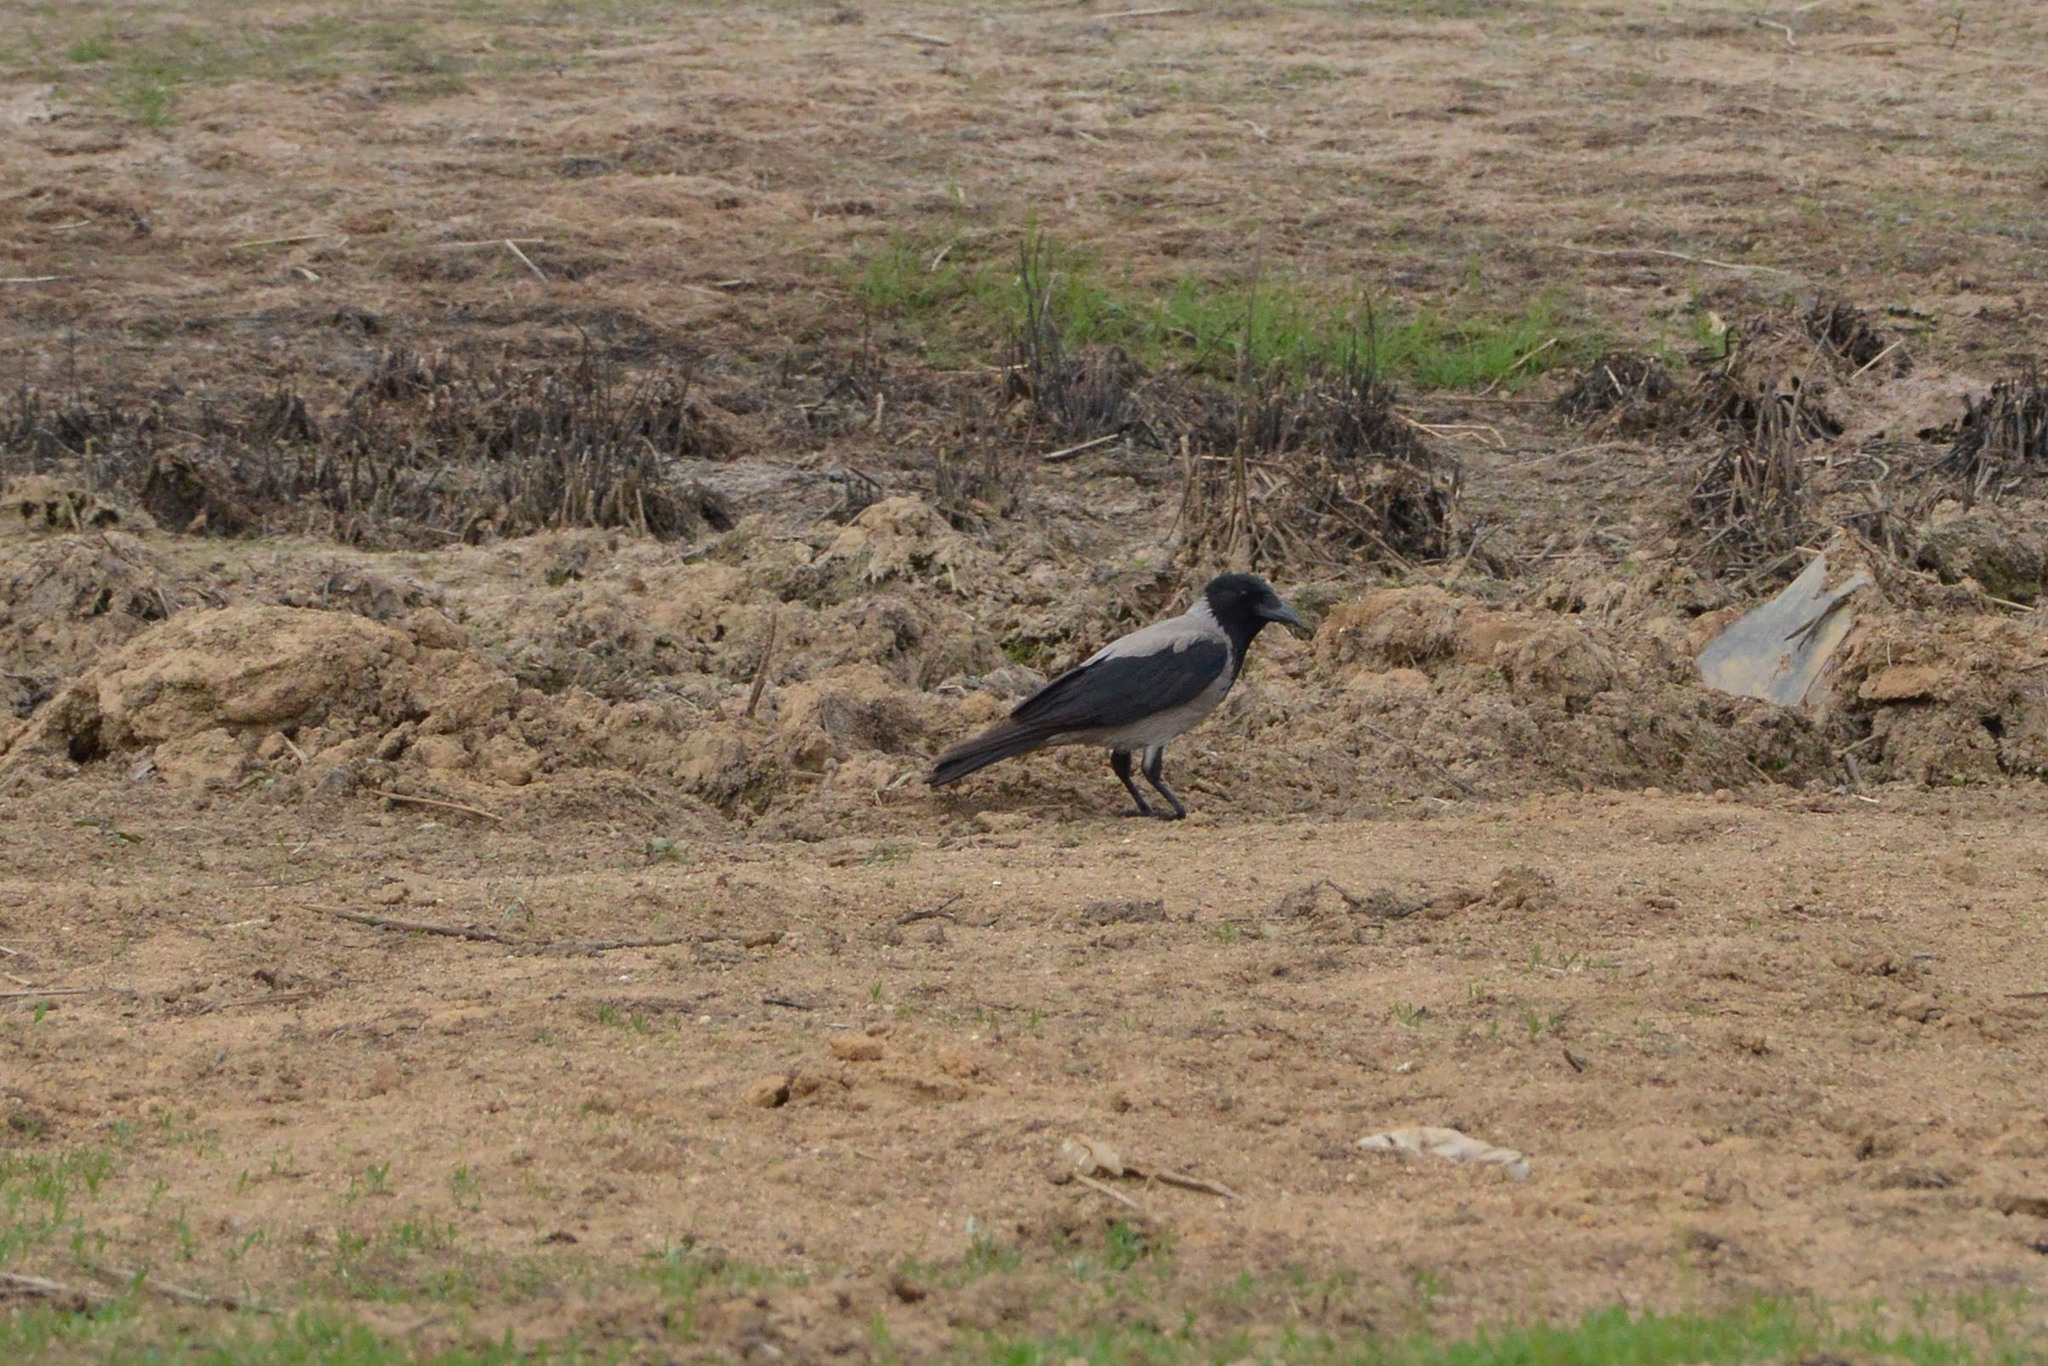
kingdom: Animalia
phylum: Chordata
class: Aves
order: Passeriformes
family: Corvidae
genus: Corvus
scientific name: Corvus cornix
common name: Hooded crow
